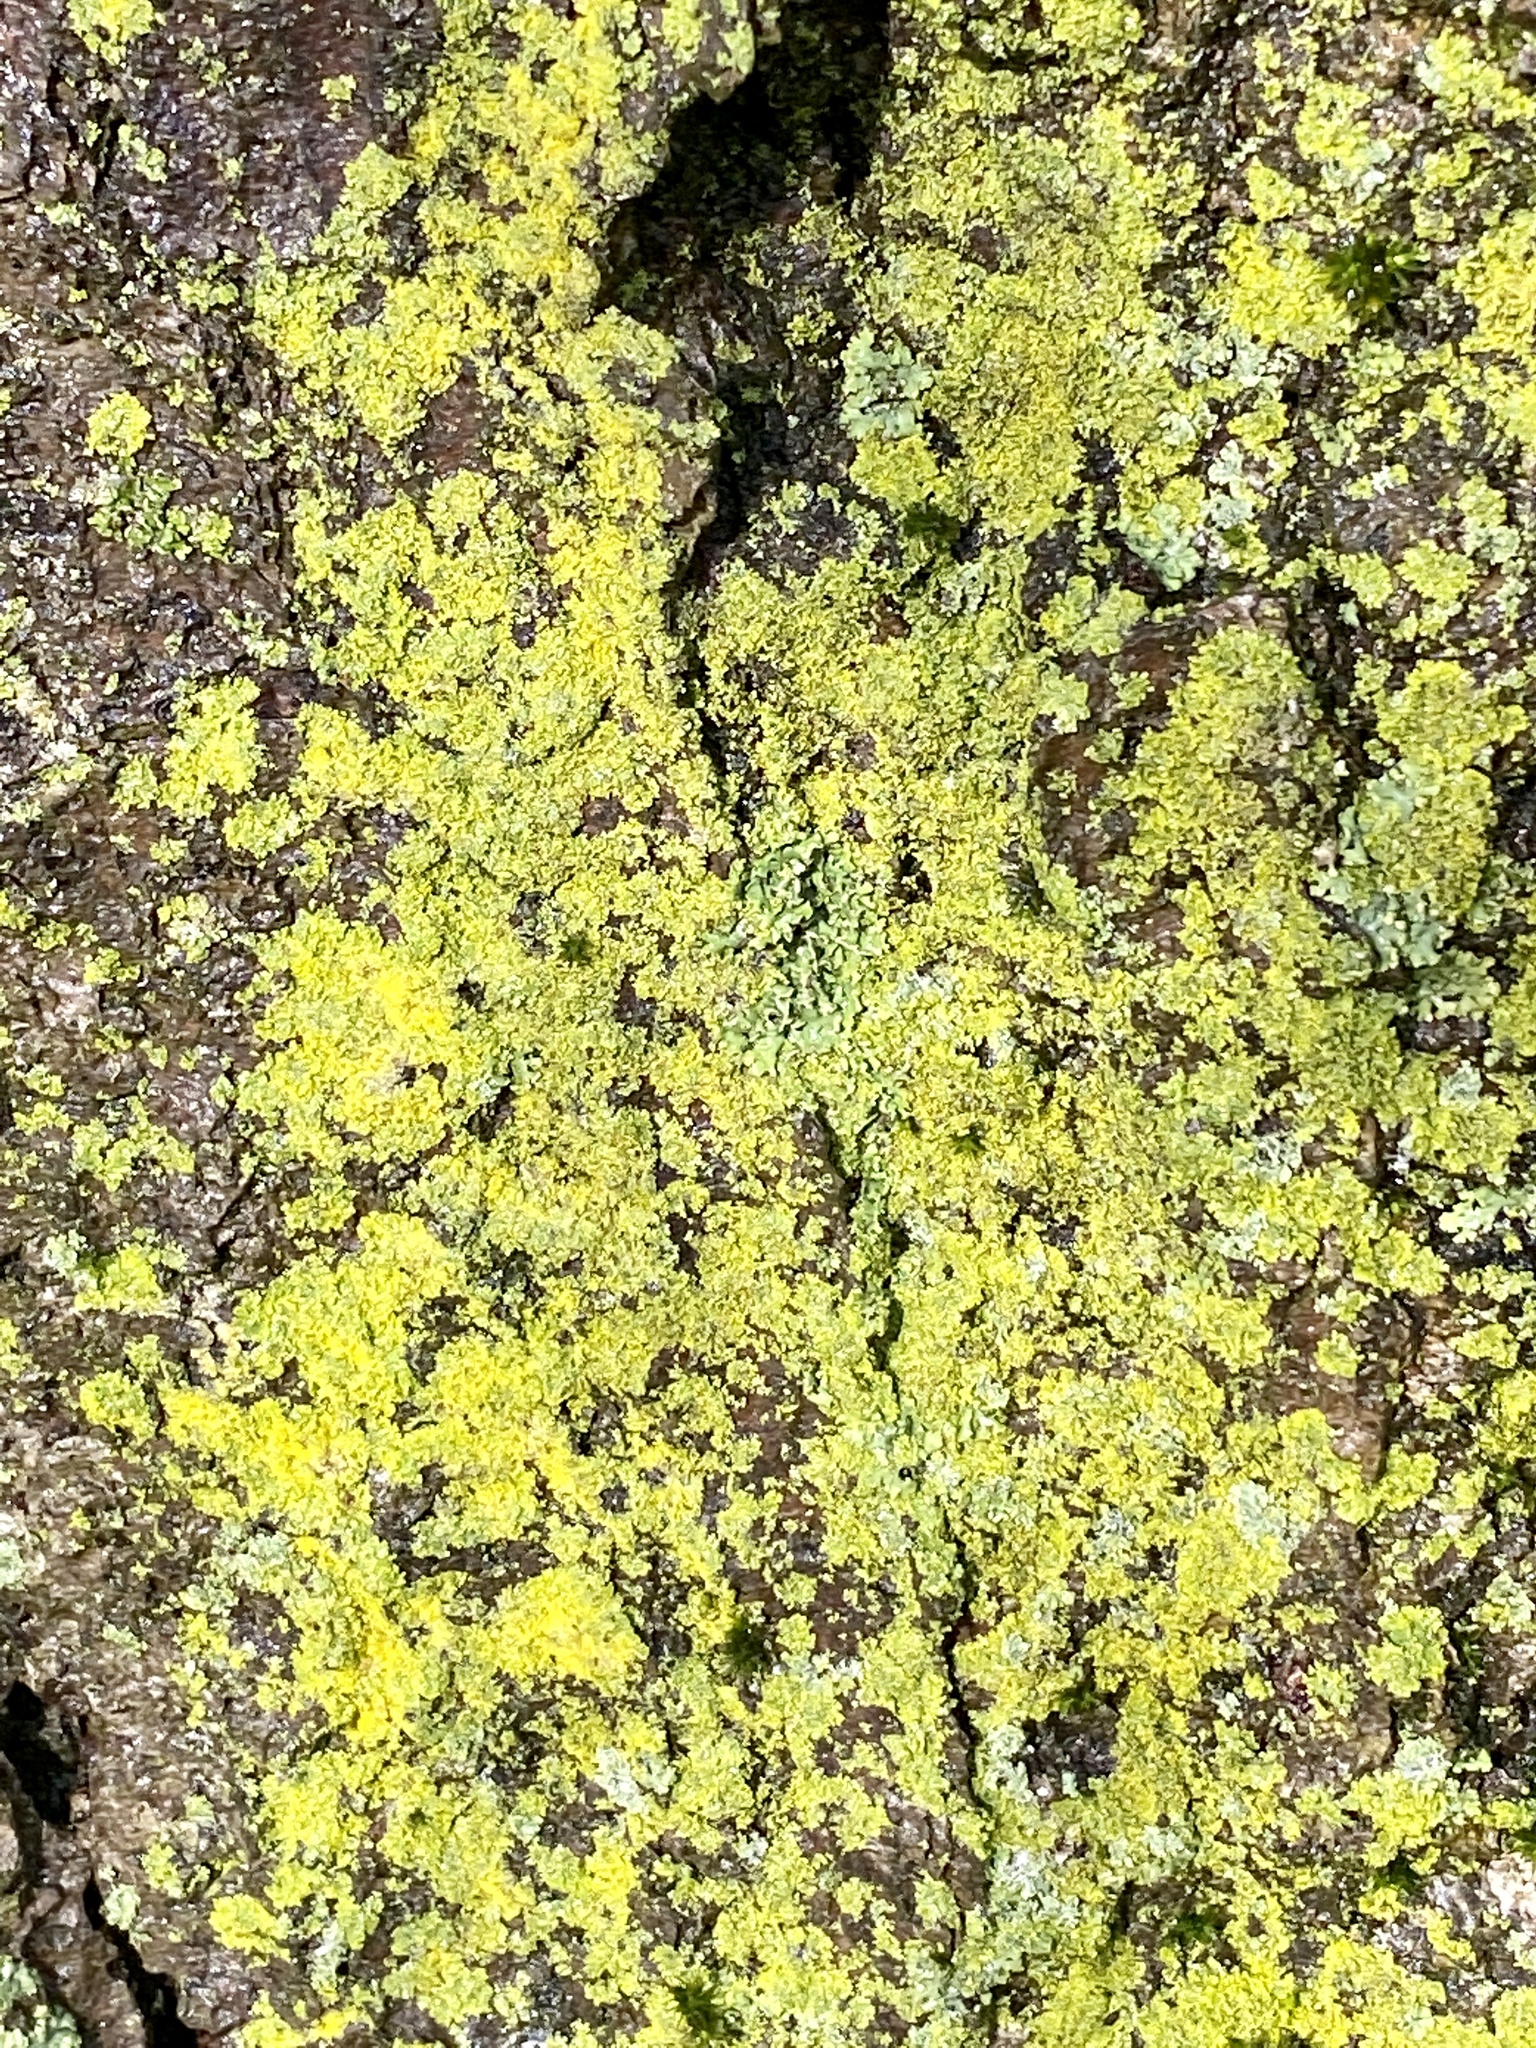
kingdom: Fungi
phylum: Ascomycota
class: Candelariomycetes
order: Candelariales
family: Candelariaceae
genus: Candelaria
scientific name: Candelaria concolor
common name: Candleflame lichen
